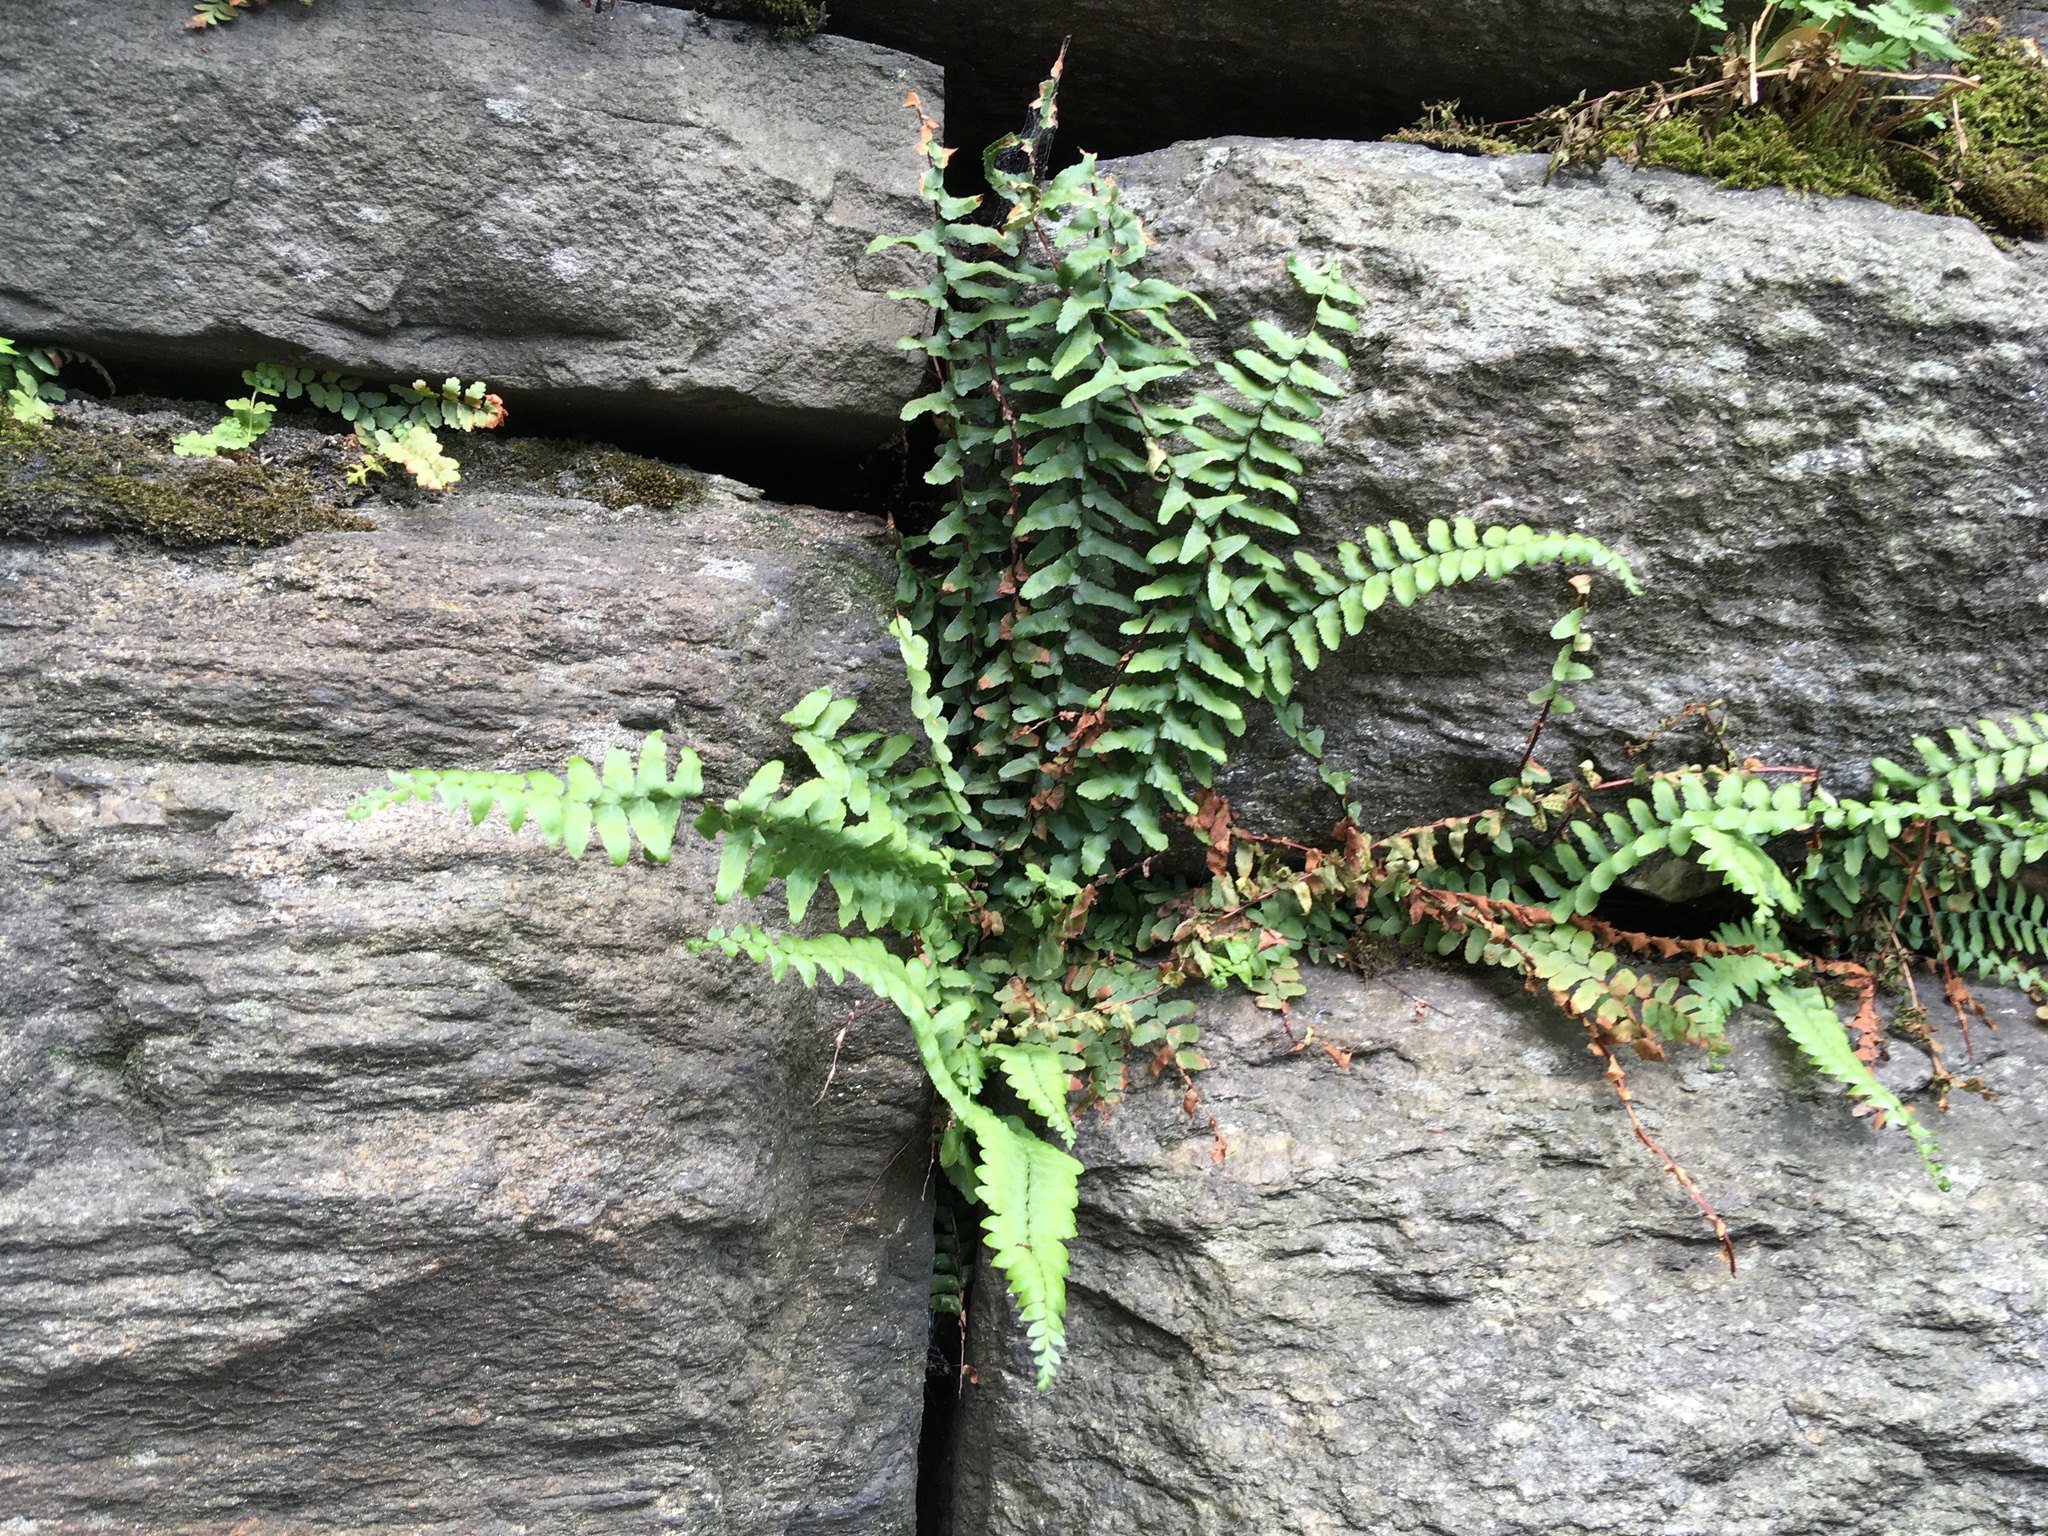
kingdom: Plantae
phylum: Tracheophyta
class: Polypodiopsida
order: Polypodiales
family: Aspleniaceae
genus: Asplenium
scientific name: Asplenium platyneuron
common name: Ebony spleenwort
